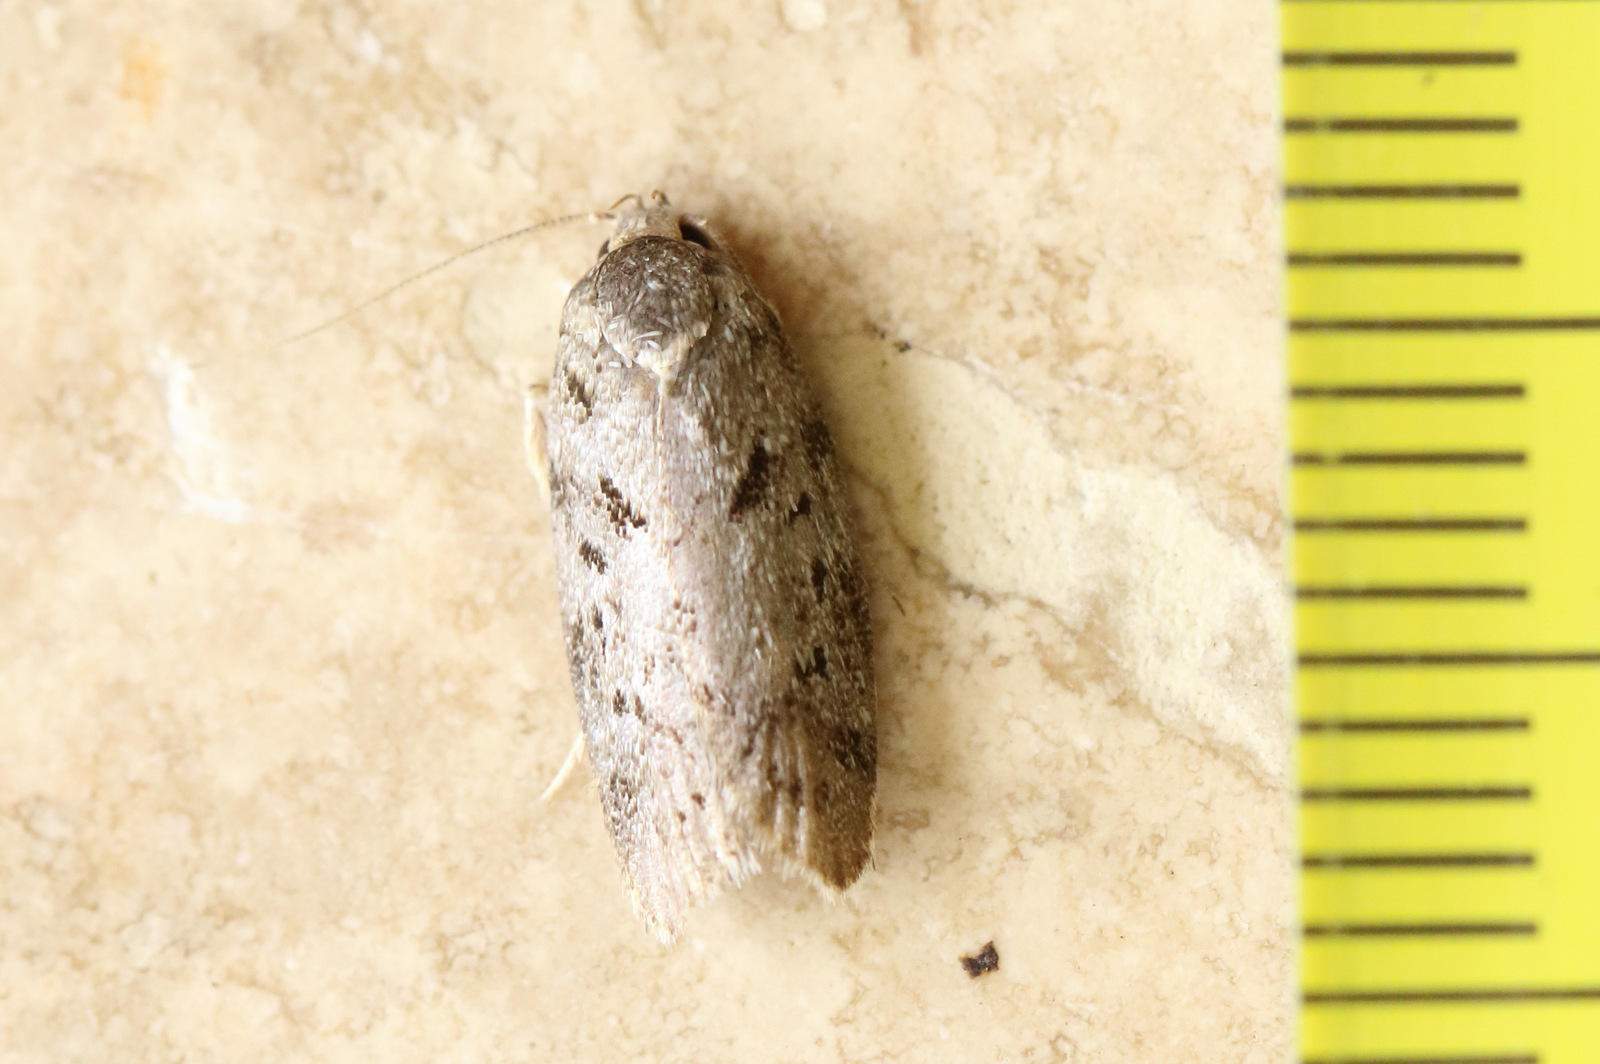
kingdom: Animalia
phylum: Arthropoda
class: Insecta
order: Lepidoptera
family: Oecophoridae
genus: Philobota
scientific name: Philobota philostaura
